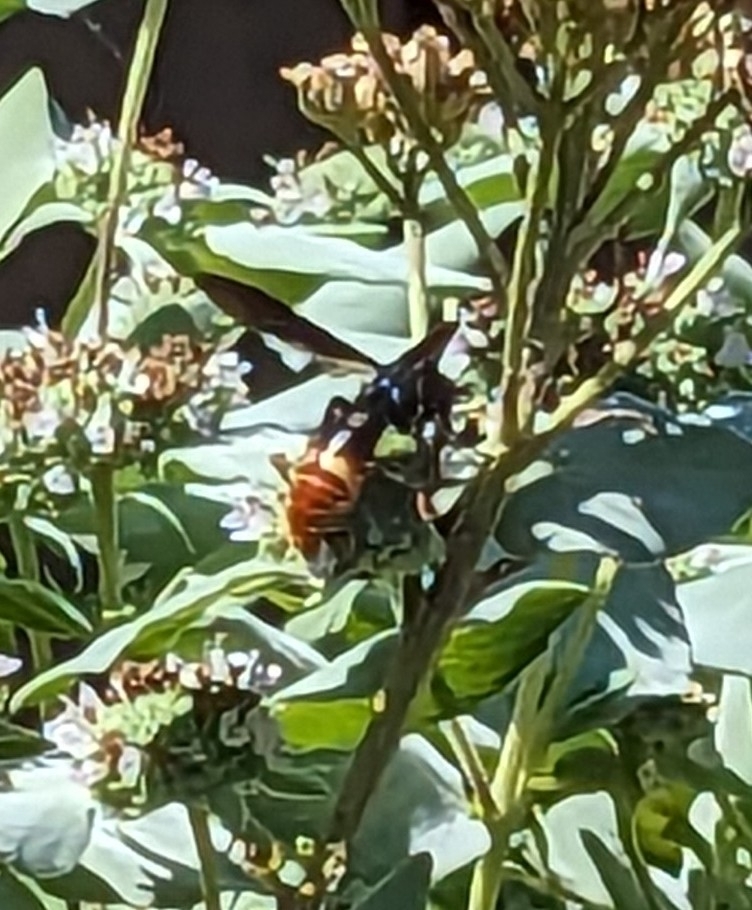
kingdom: Animalia
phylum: Arthropoda
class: Insecta
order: Hymenoptera
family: Scoliidae
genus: Scolia
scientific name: Scolia dubia
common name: Blue-winged scoliid wasp
